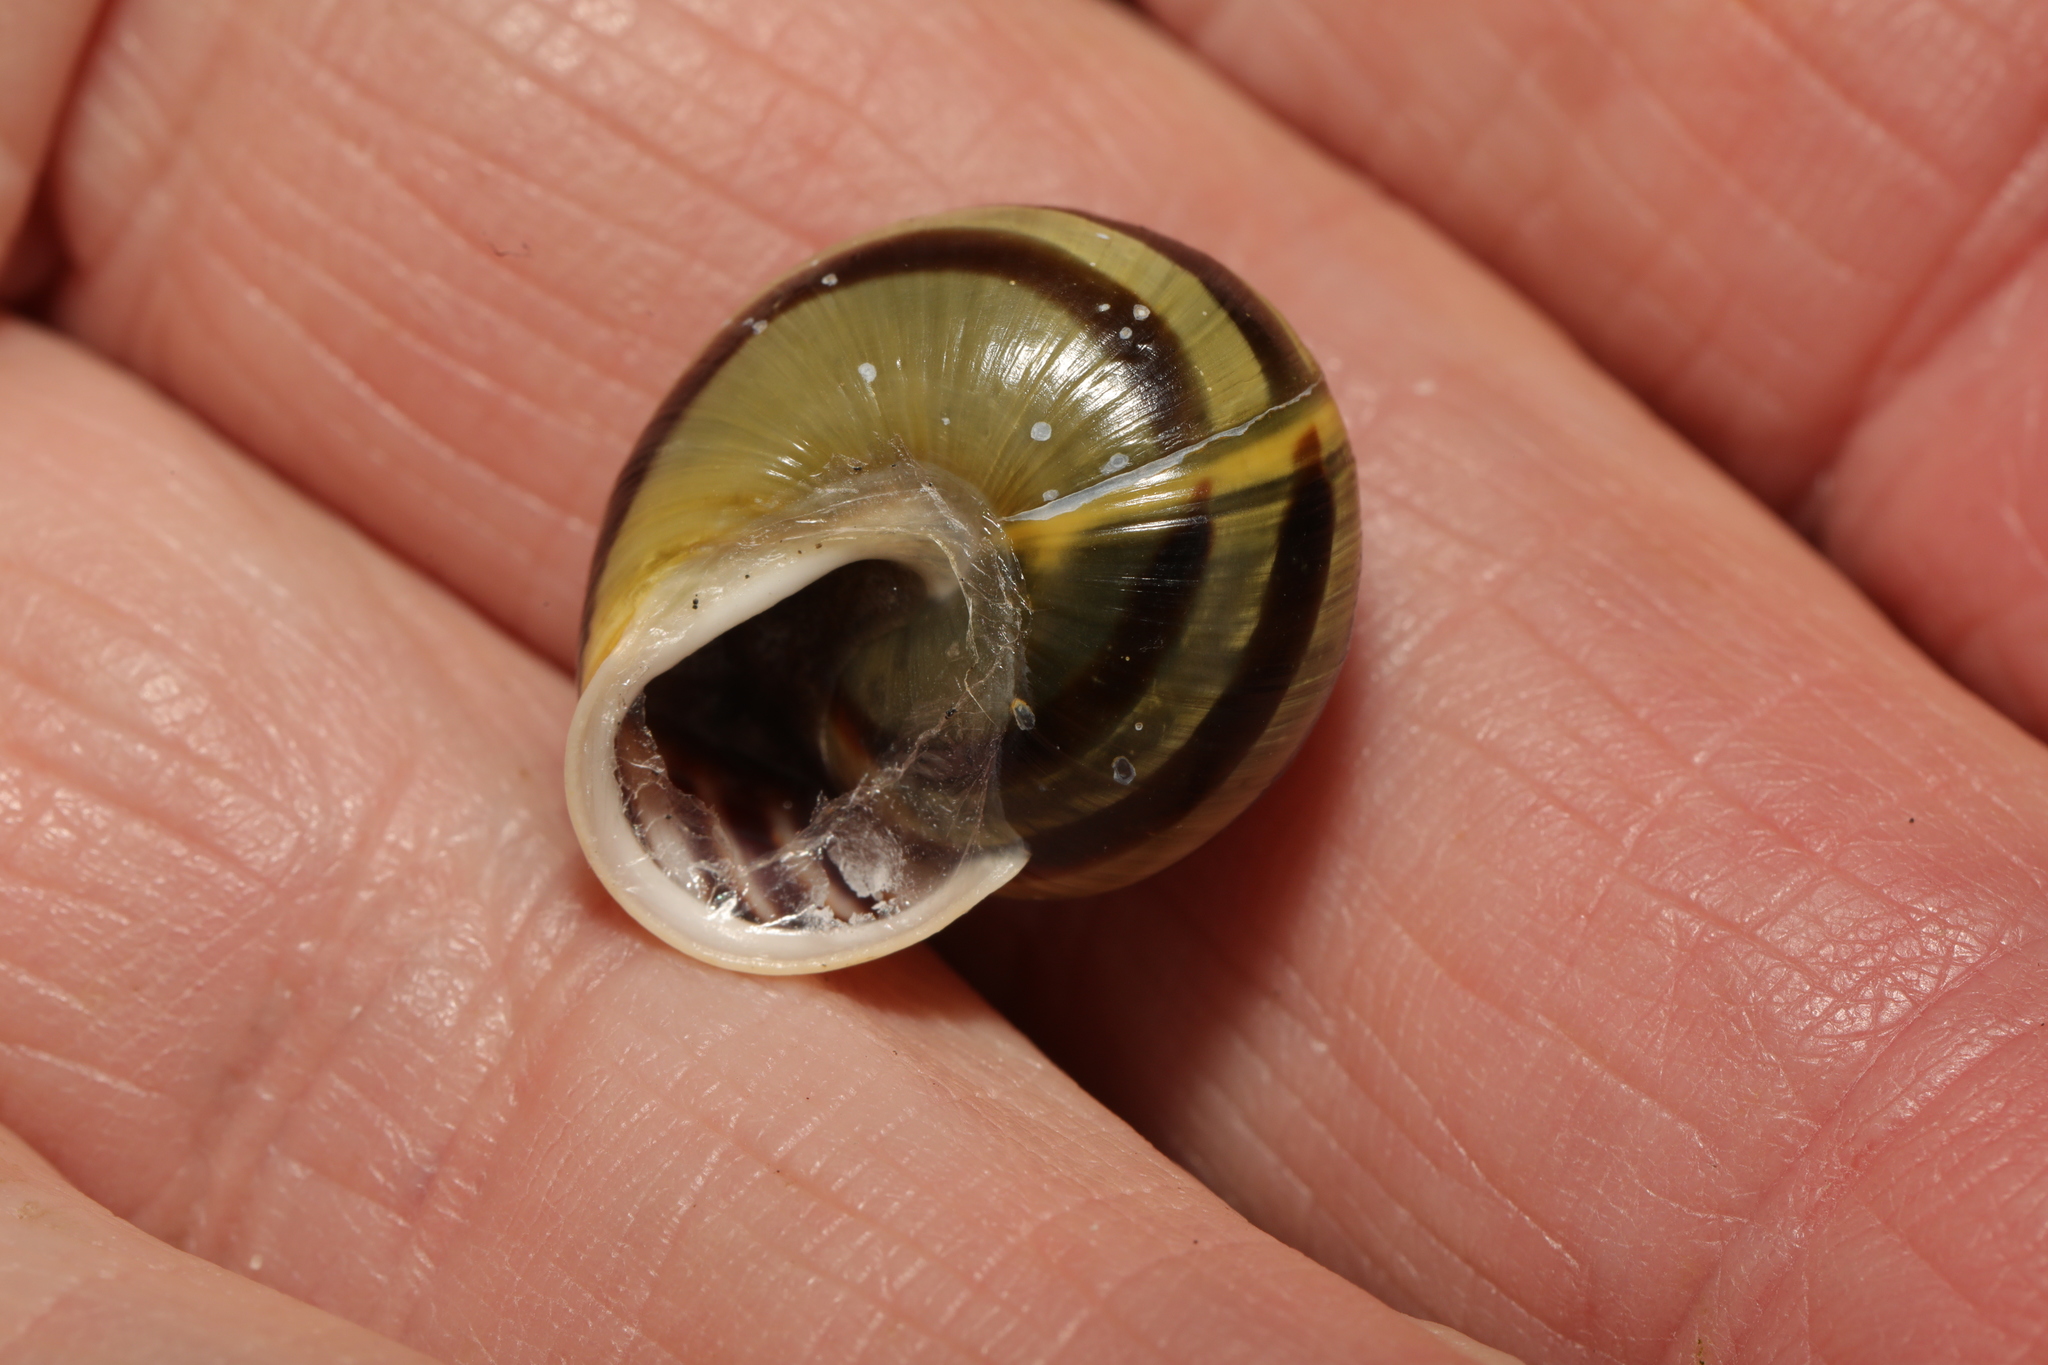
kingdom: Animalia
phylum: Mollusca
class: Gastropoda
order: Stylommatophora
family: Helicidae
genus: Cepaea
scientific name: Cepaea hortensis
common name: White-lip gardensnail
